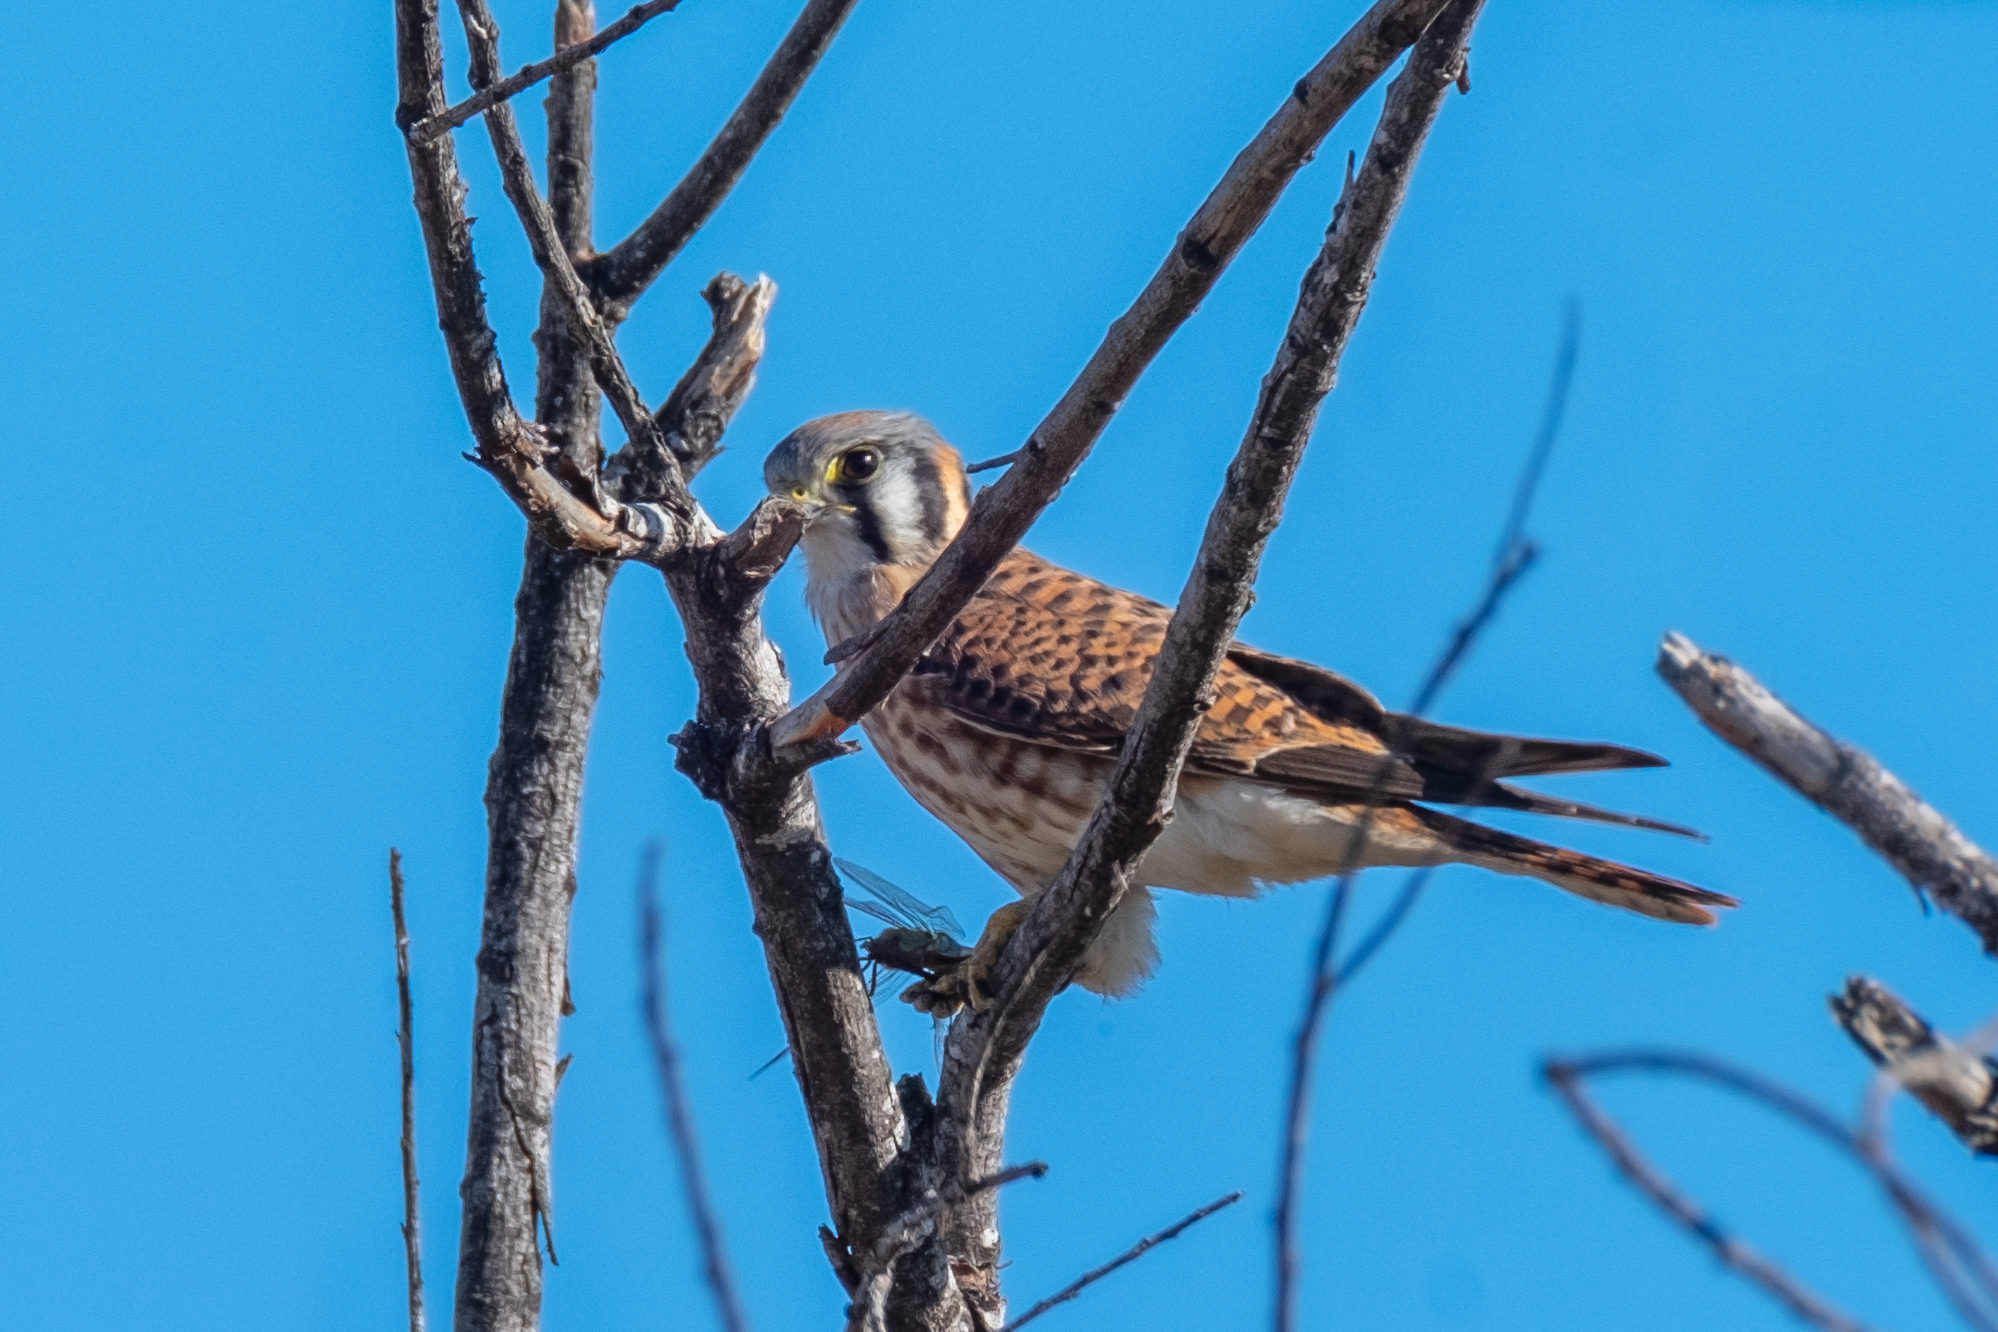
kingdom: Animalia
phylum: Chordata
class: Aves
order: Falconiformes
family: Falconidae
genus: Falco
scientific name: Falco sparverius
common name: American kestrel
